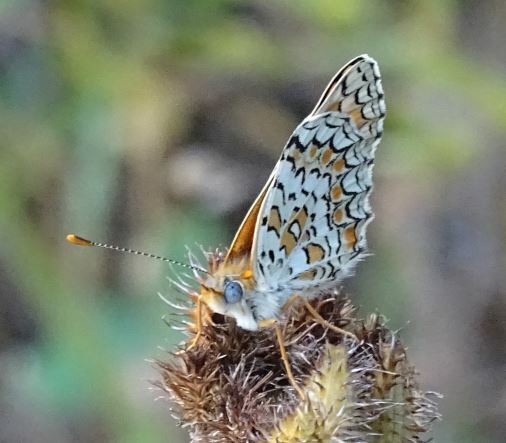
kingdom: Animalia
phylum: Arthropoda
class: Insecta
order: Lepidoptera
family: Nymphalidae
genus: Melitaea
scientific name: Melitaea phoebe
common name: Knapweed fritillary
